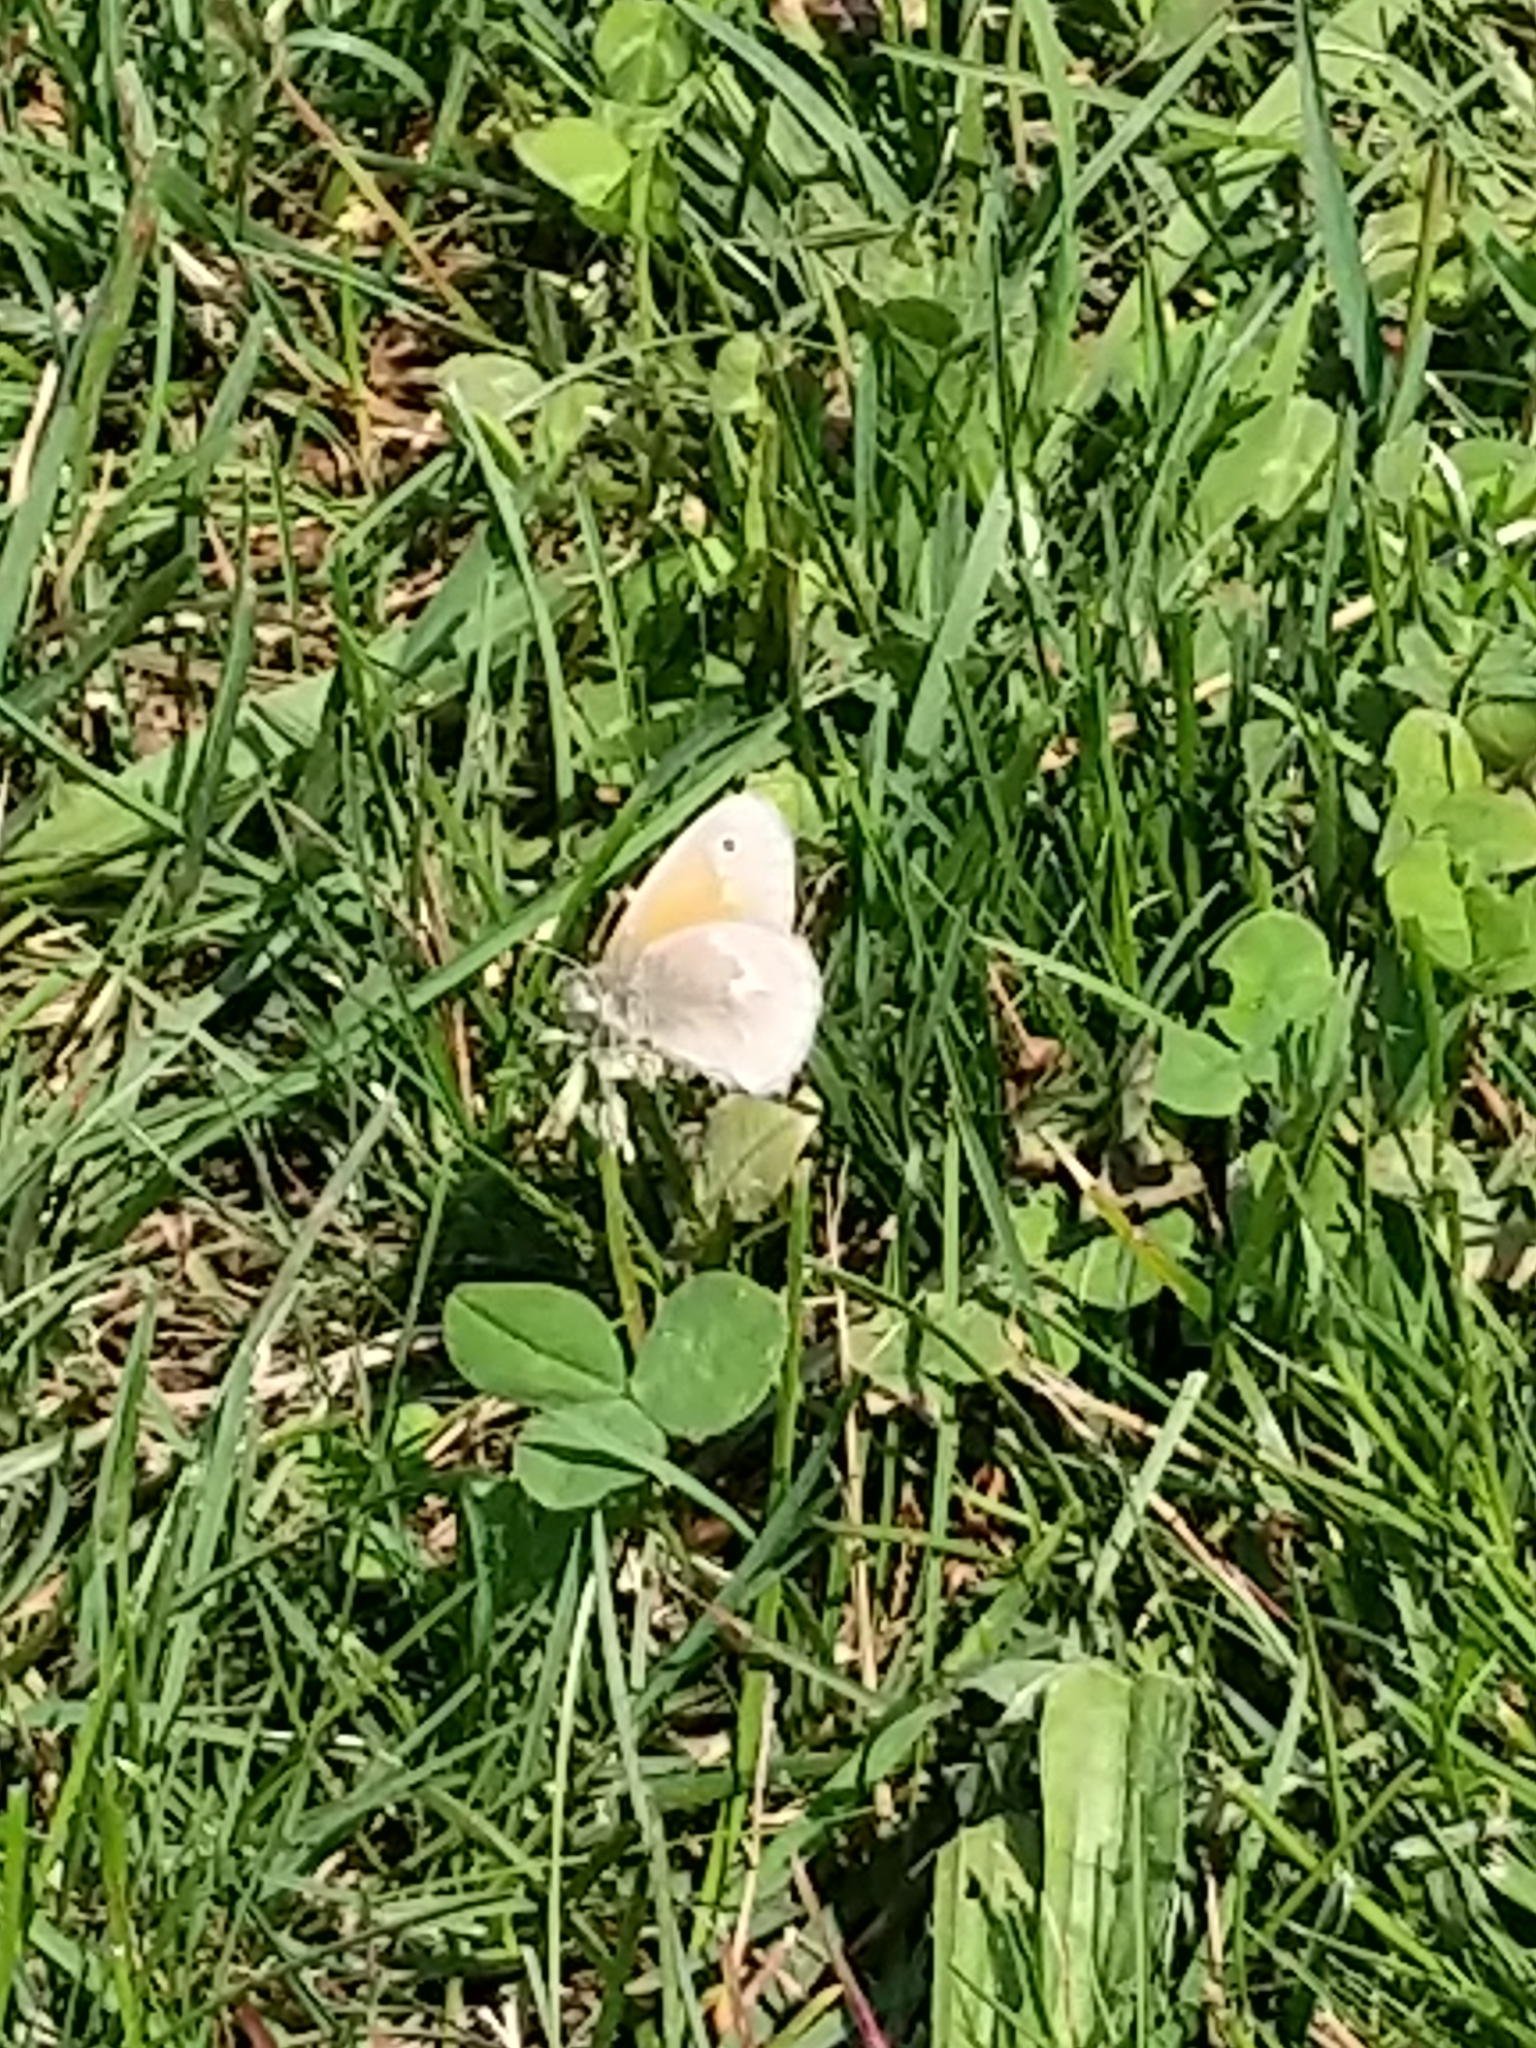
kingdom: Animalia
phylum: Arthropoda
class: Insecta
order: Lepidoptera
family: Nymphalidae
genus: Coenonympha
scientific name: Coenonympha california
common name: Common ringlet
